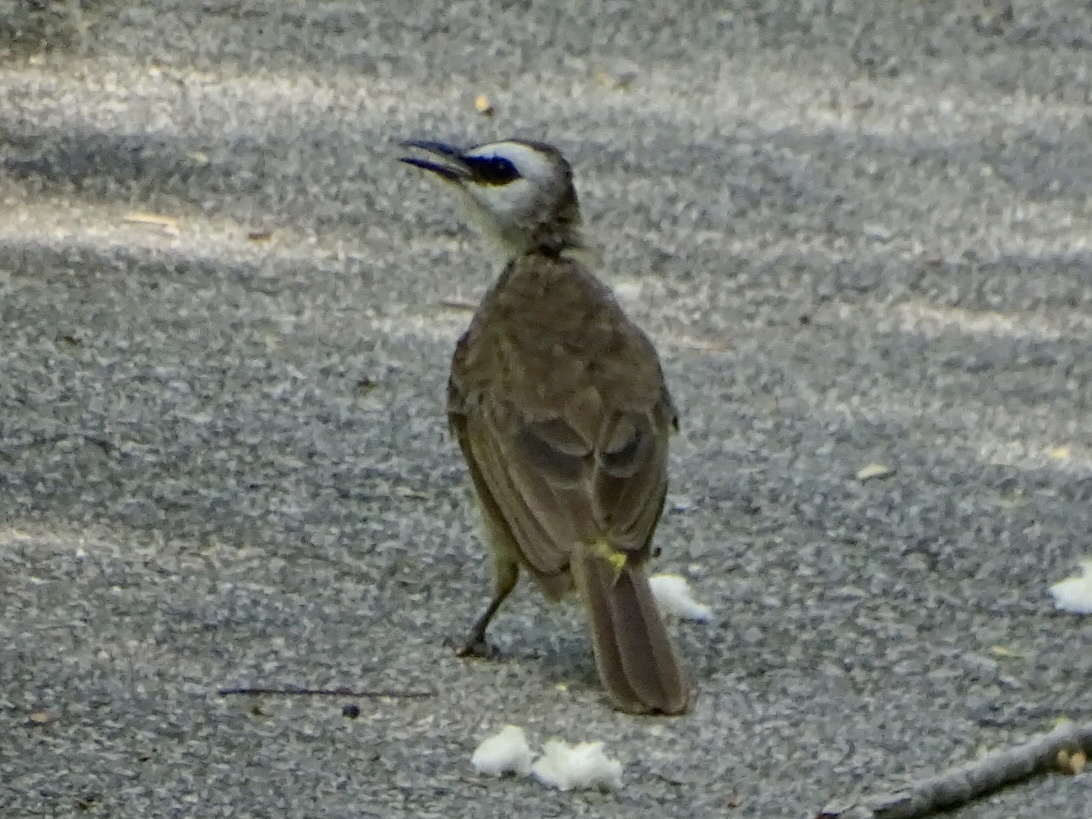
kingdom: Animalia
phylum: Chordata
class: Aves
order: Passeriformes
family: Pycnonotidae
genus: Pycnonotus
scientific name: Pycnonotus goiavier
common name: Yellow-vented bulbul
